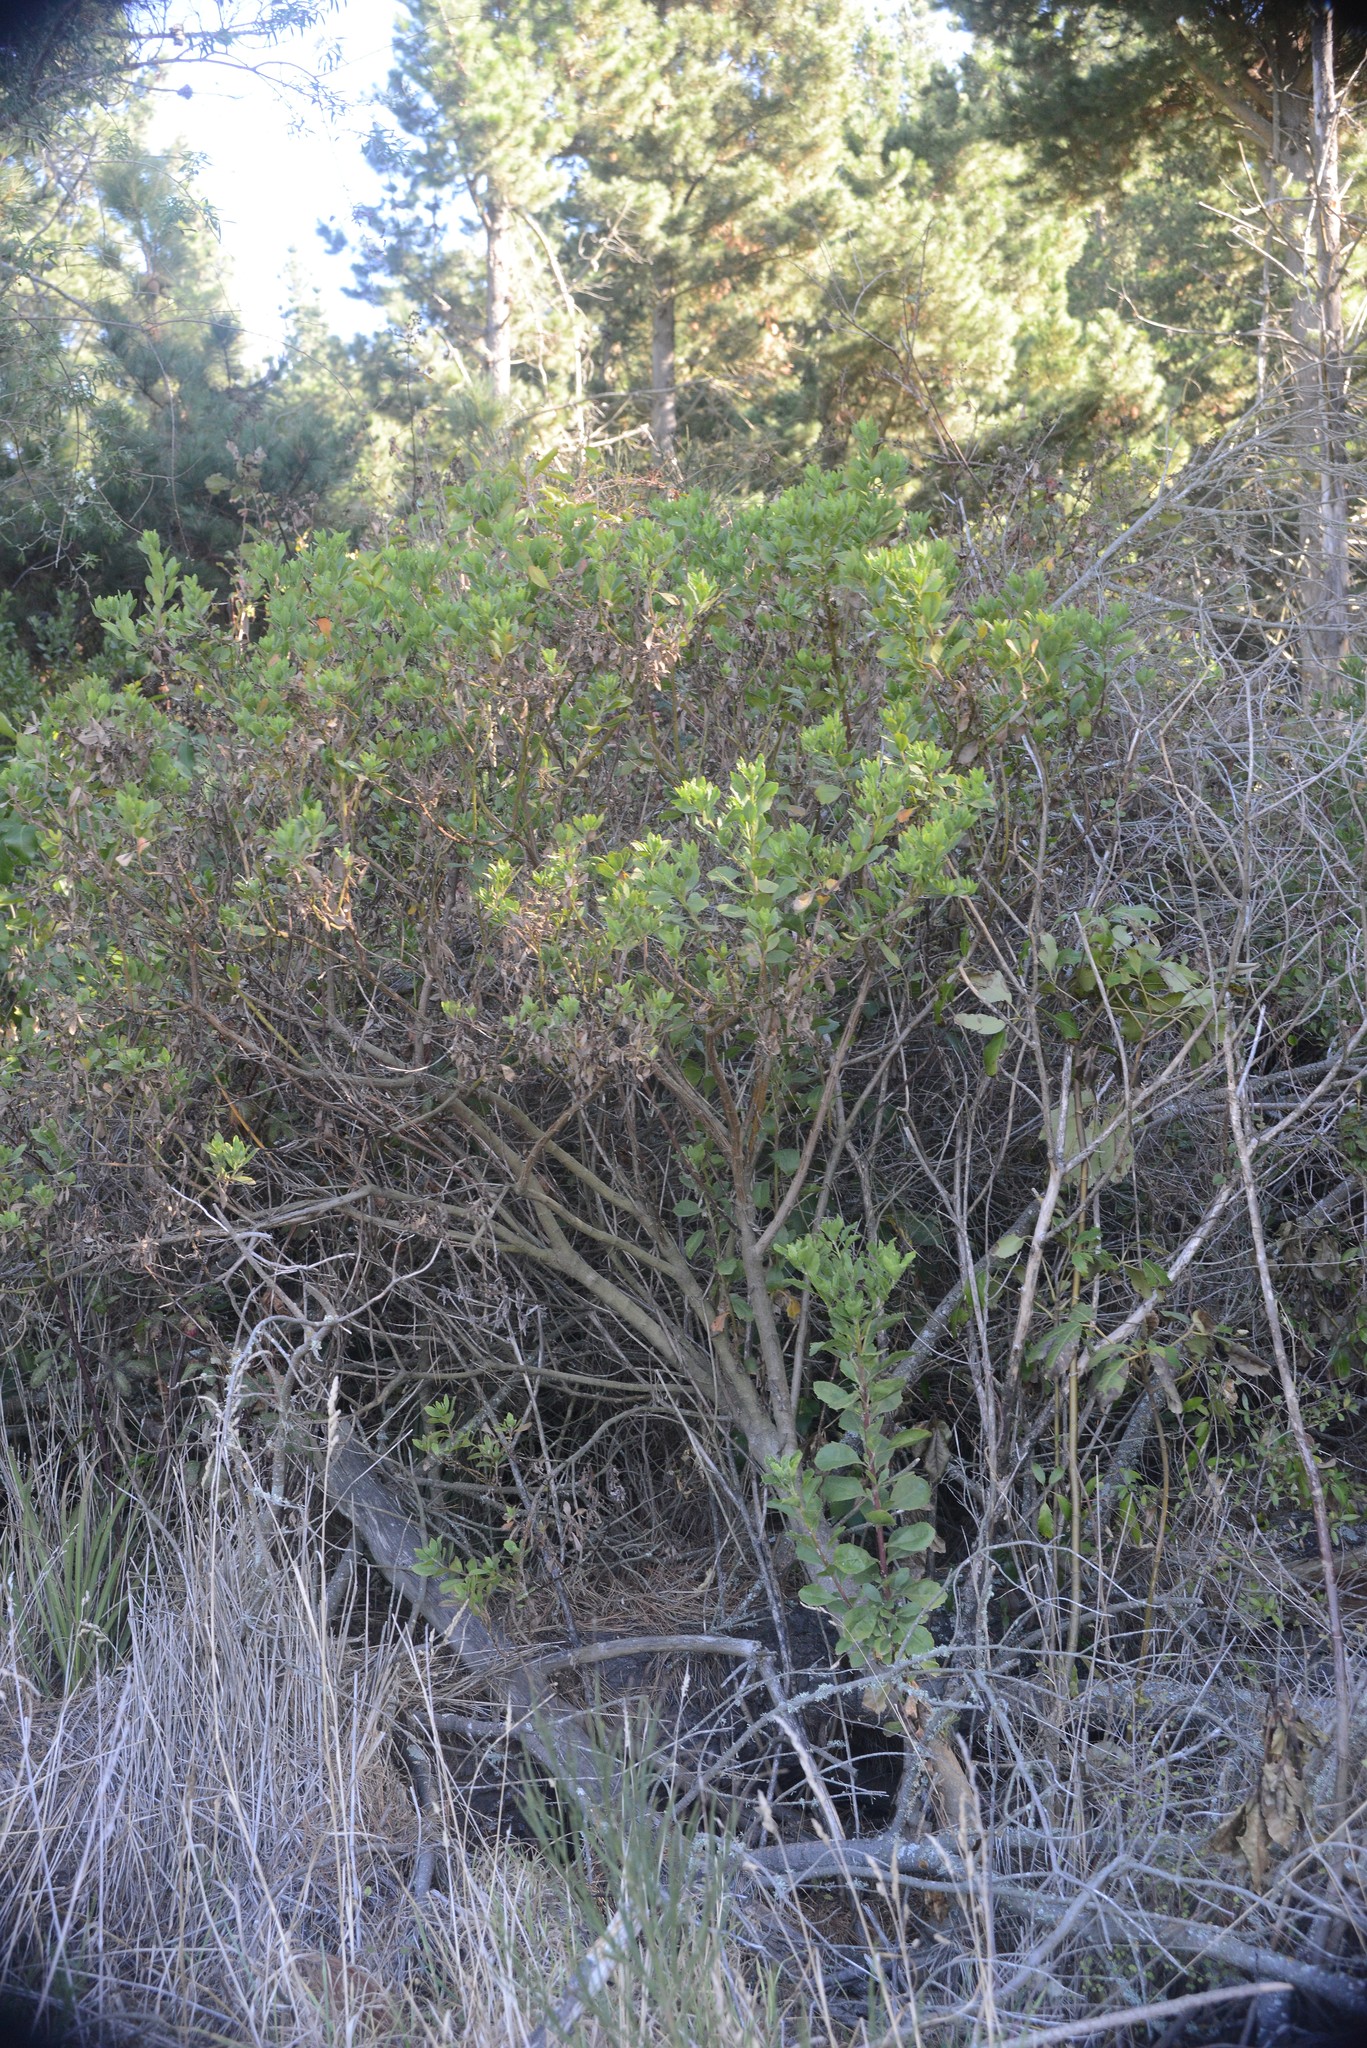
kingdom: Plantae
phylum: Tracheophyta
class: Magnoliopsida
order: Asterales
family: Asteraceae
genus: Osteospermum
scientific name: Osteospermum moniliferum
